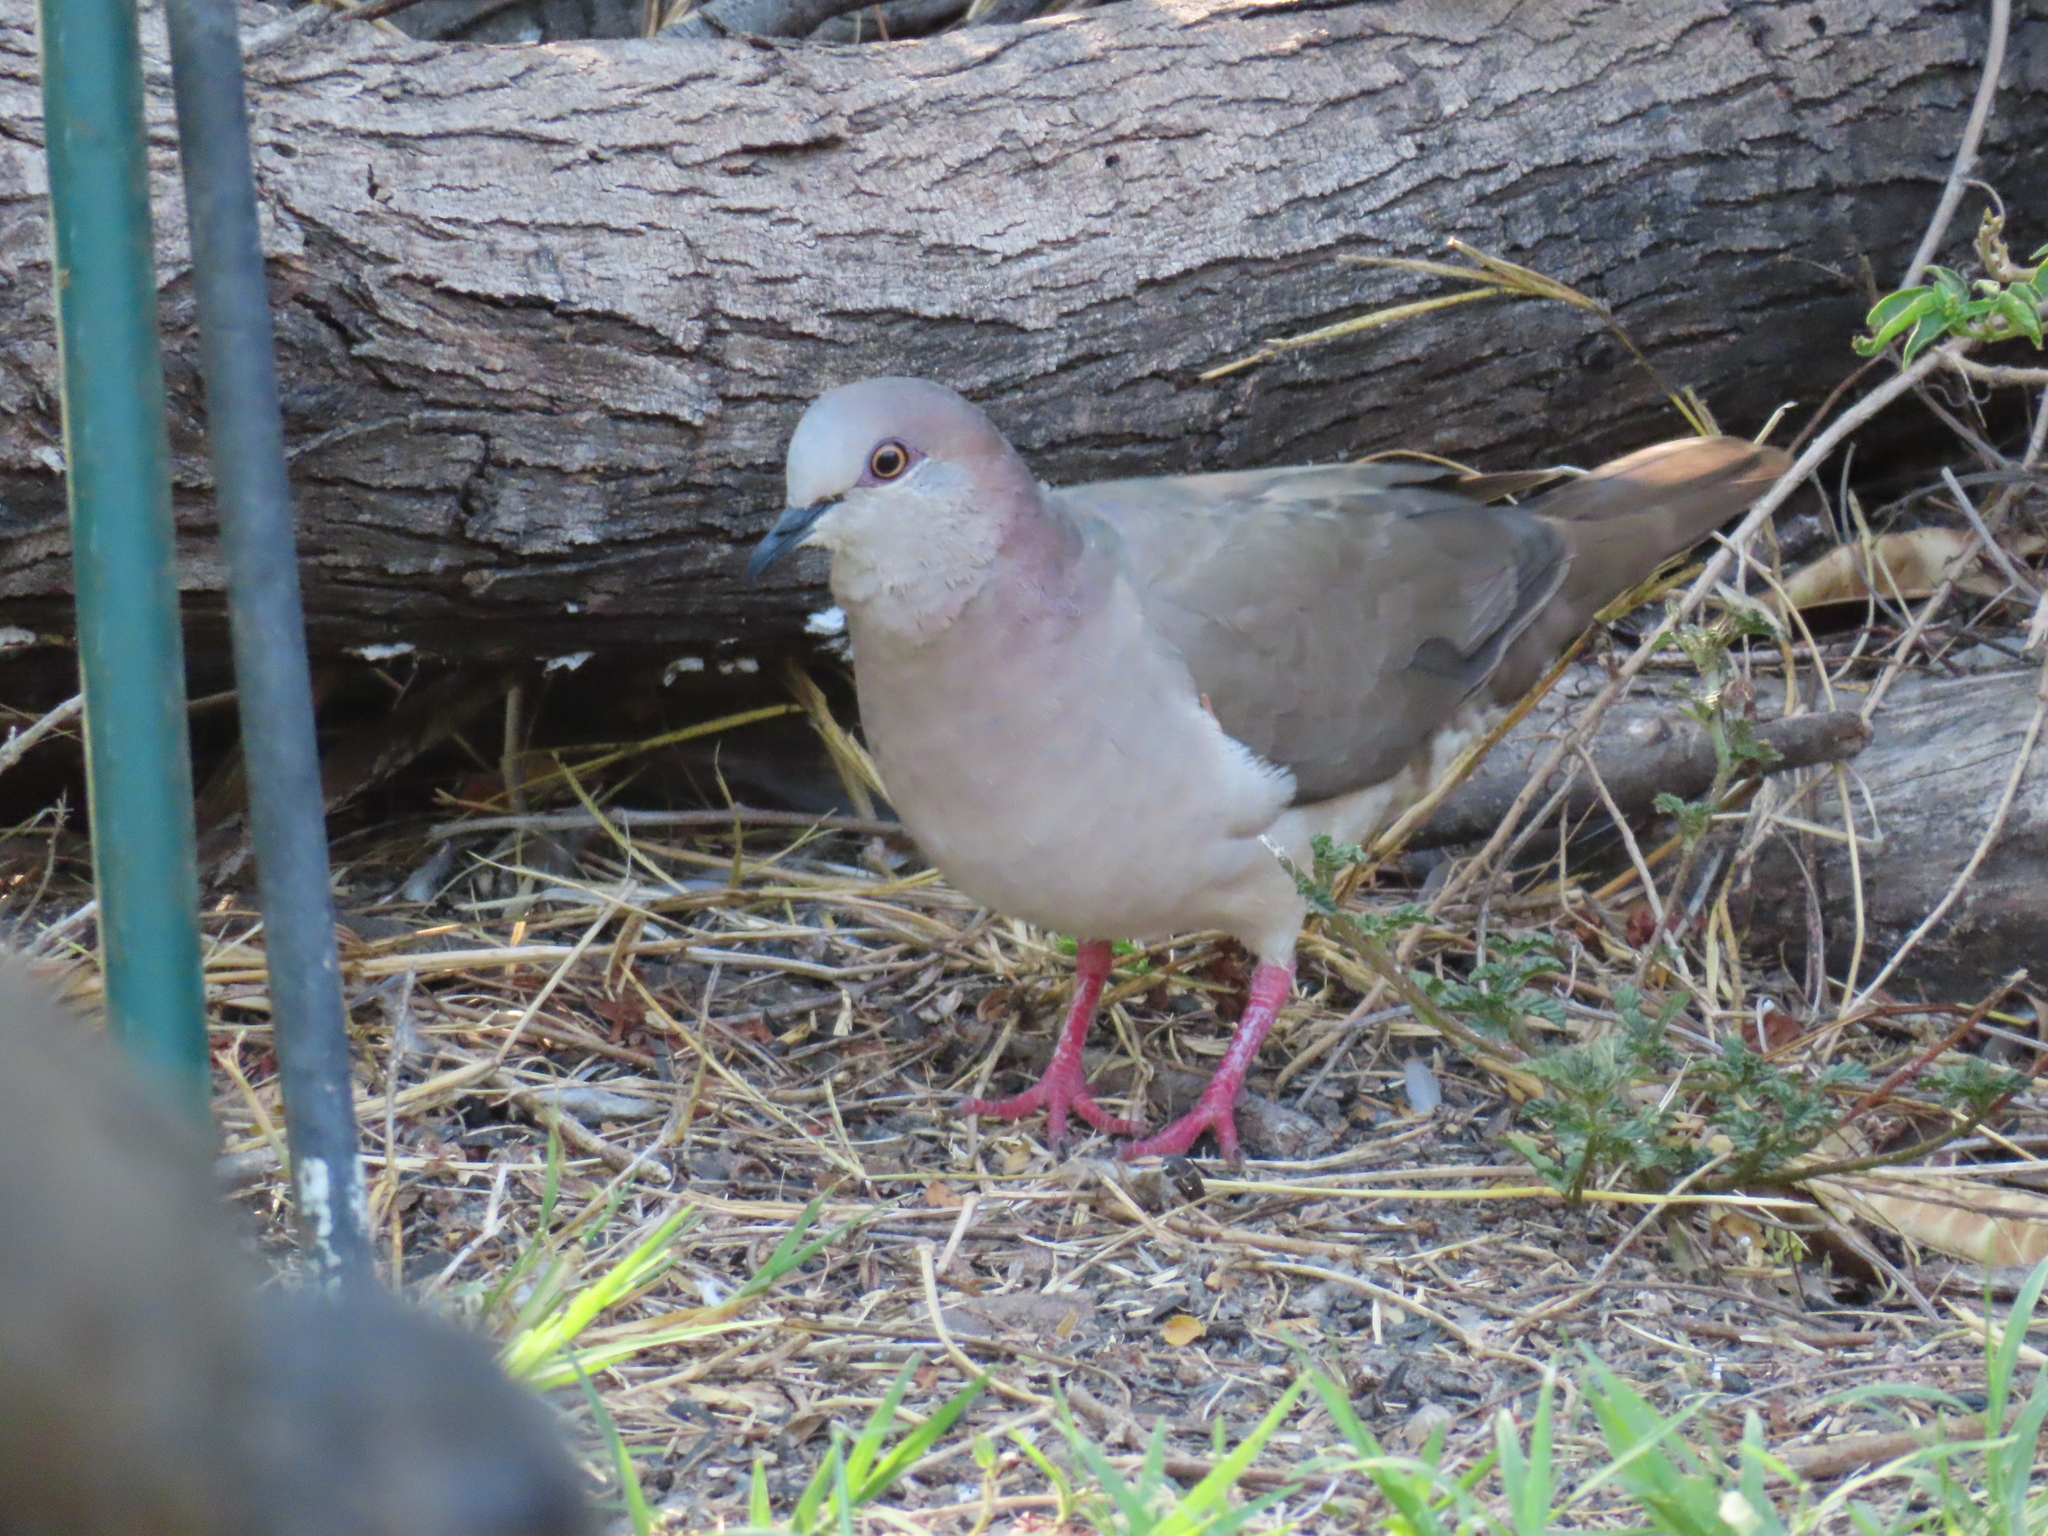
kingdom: Animalia
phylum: Chordata
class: Aves
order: Columbiformes
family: Columbidae
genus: Leptotila
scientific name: Leptotila verreauxi
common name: White-tipped dove
